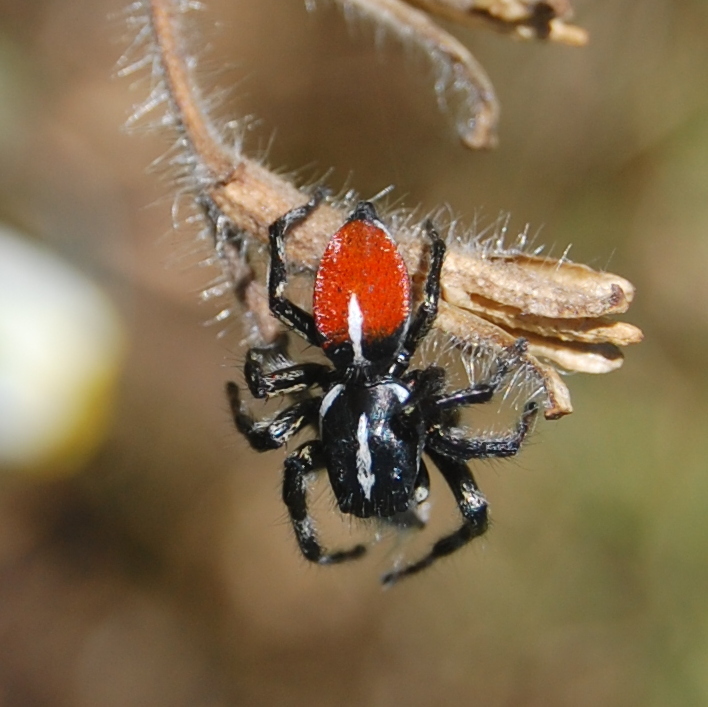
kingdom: Animalia
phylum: Arthropoda
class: Arachnida
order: Araneae
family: Salticidae
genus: Phiale
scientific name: Phiale roburifoliata
